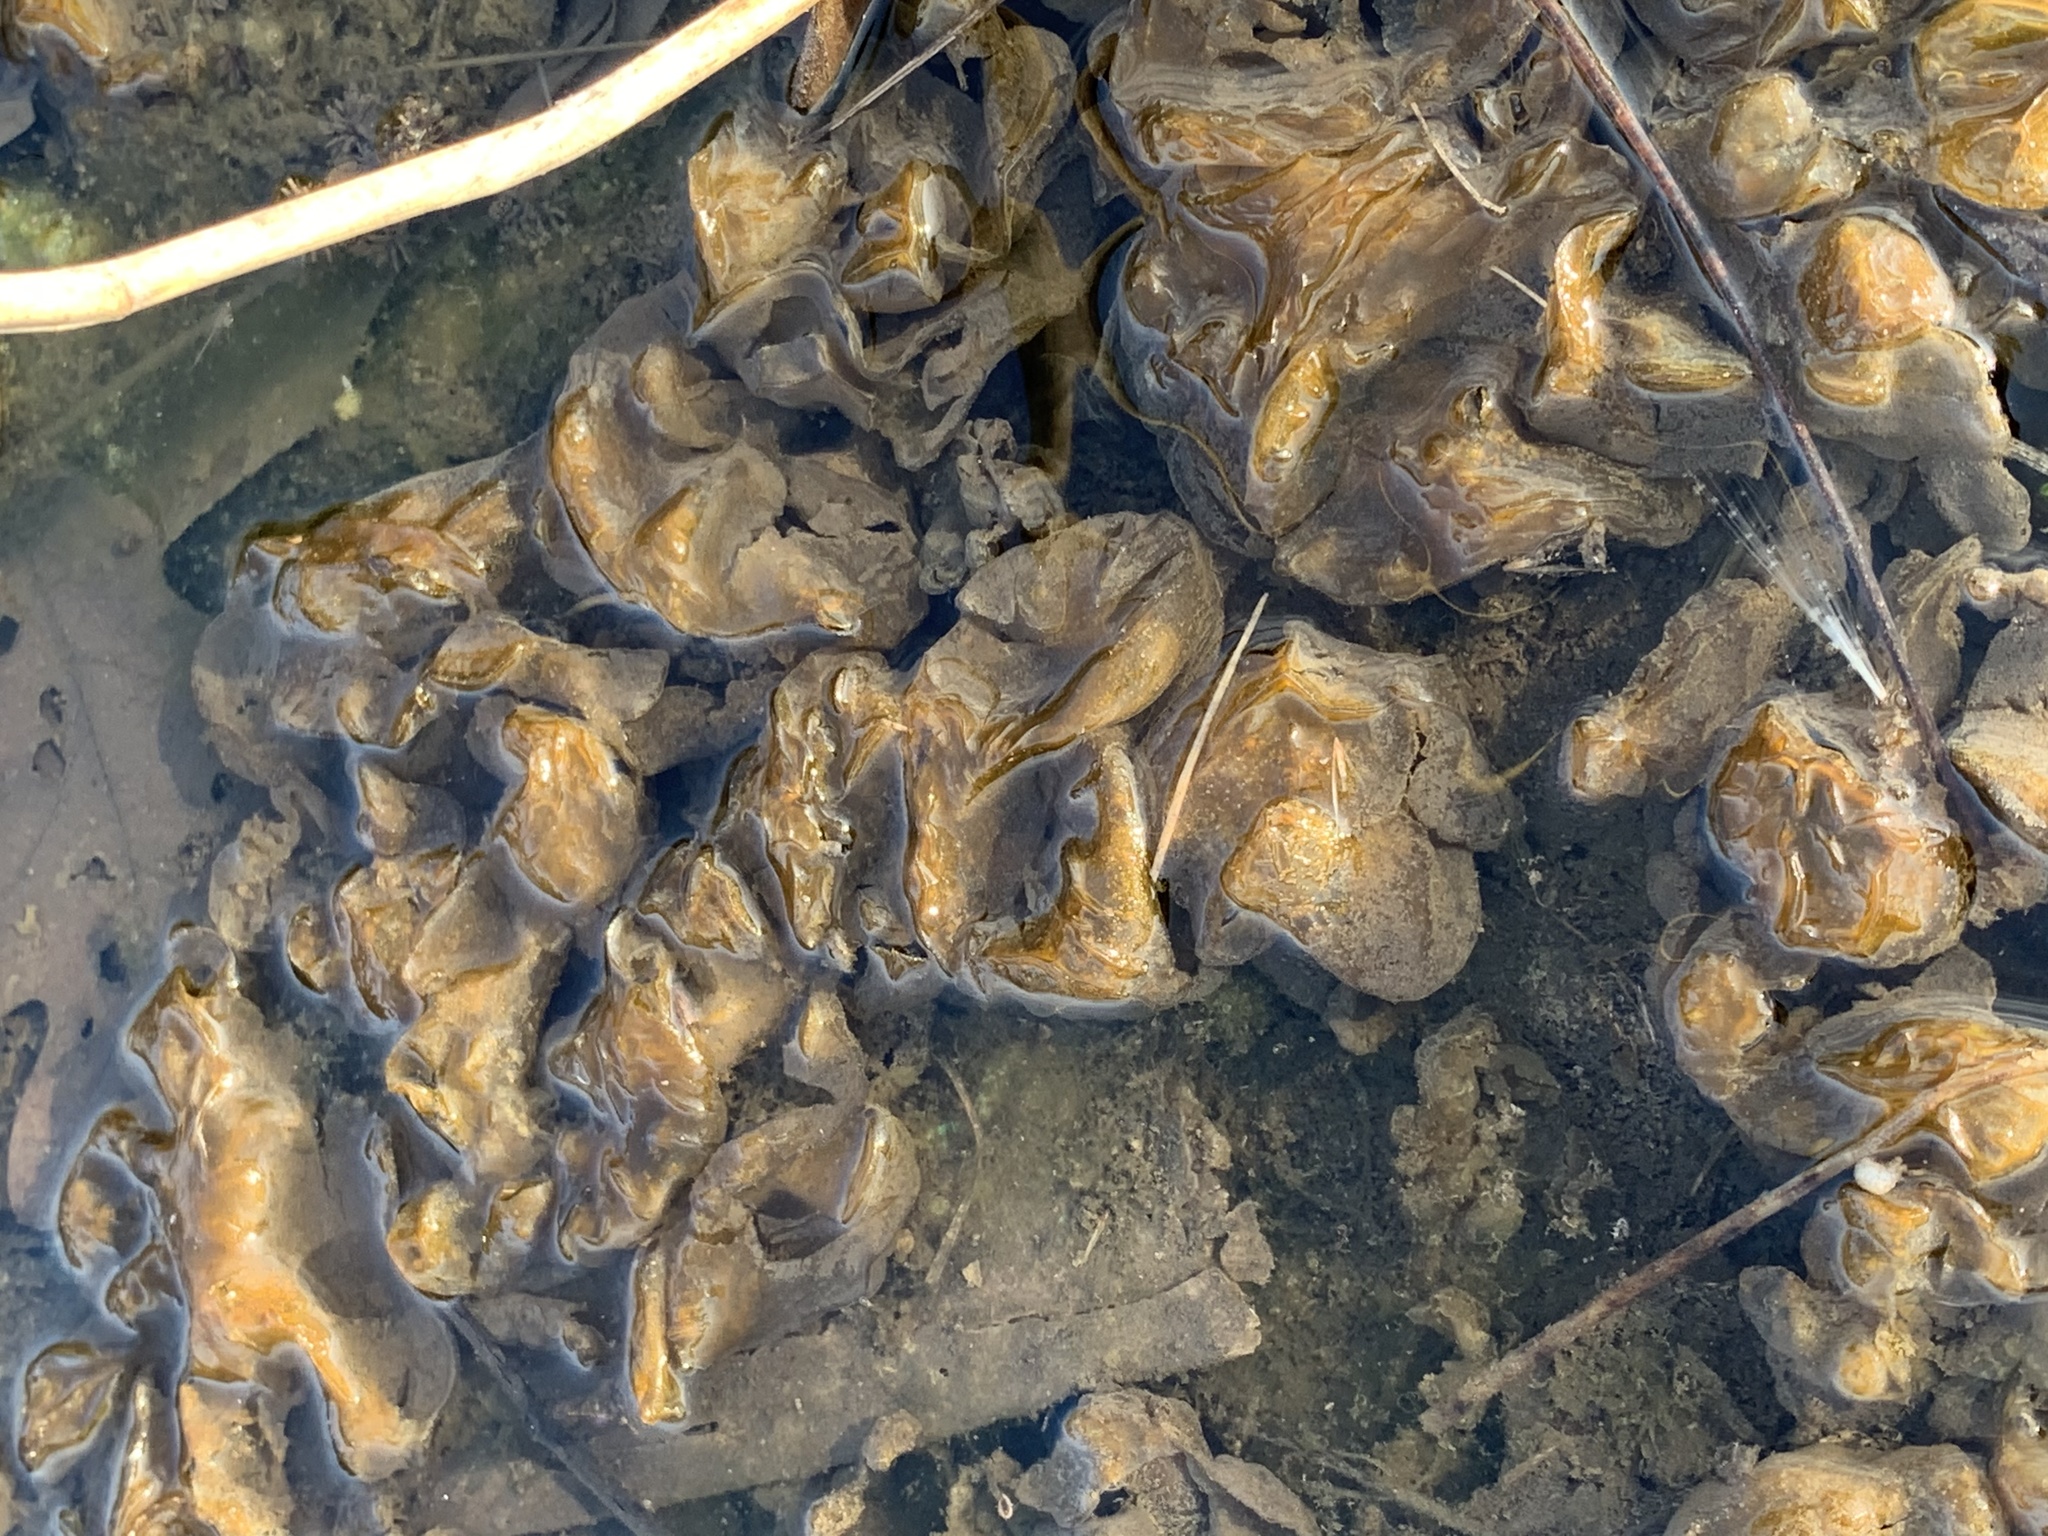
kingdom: Bacteria
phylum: Cyanobacteria
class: Cyanobacteriia
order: Cyanobacteriales
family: Nostocaceae
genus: Nostoc
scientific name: Nostoc commune
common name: Star jelly
